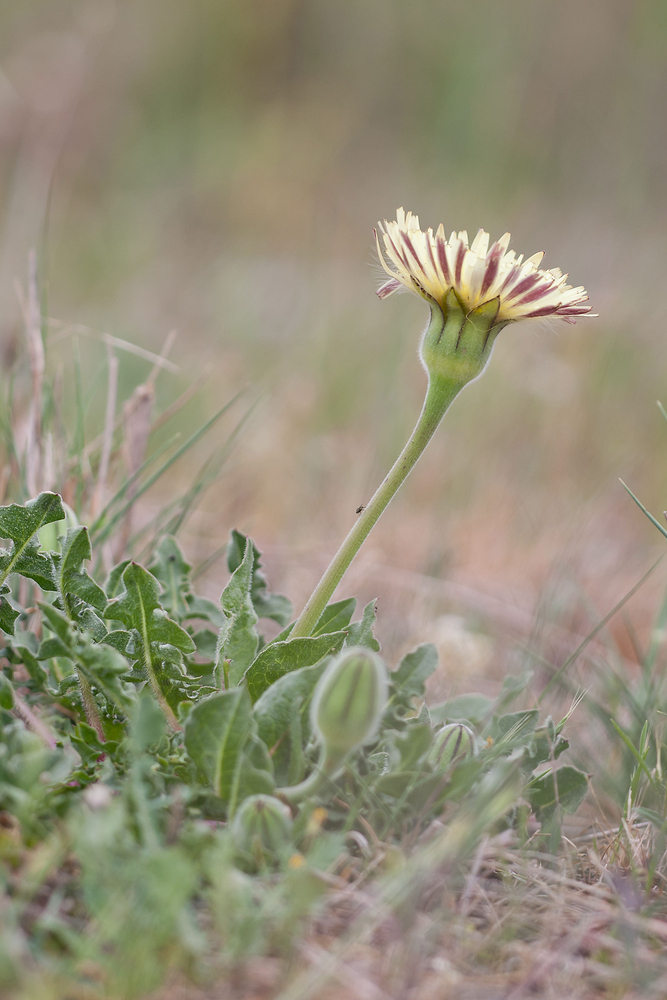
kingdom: Plantae
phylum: Tracheophyta
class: Magnoliopsida
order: Asterales
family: Asteraceae
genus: Urospermum
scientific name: Urospermum dalechampii
